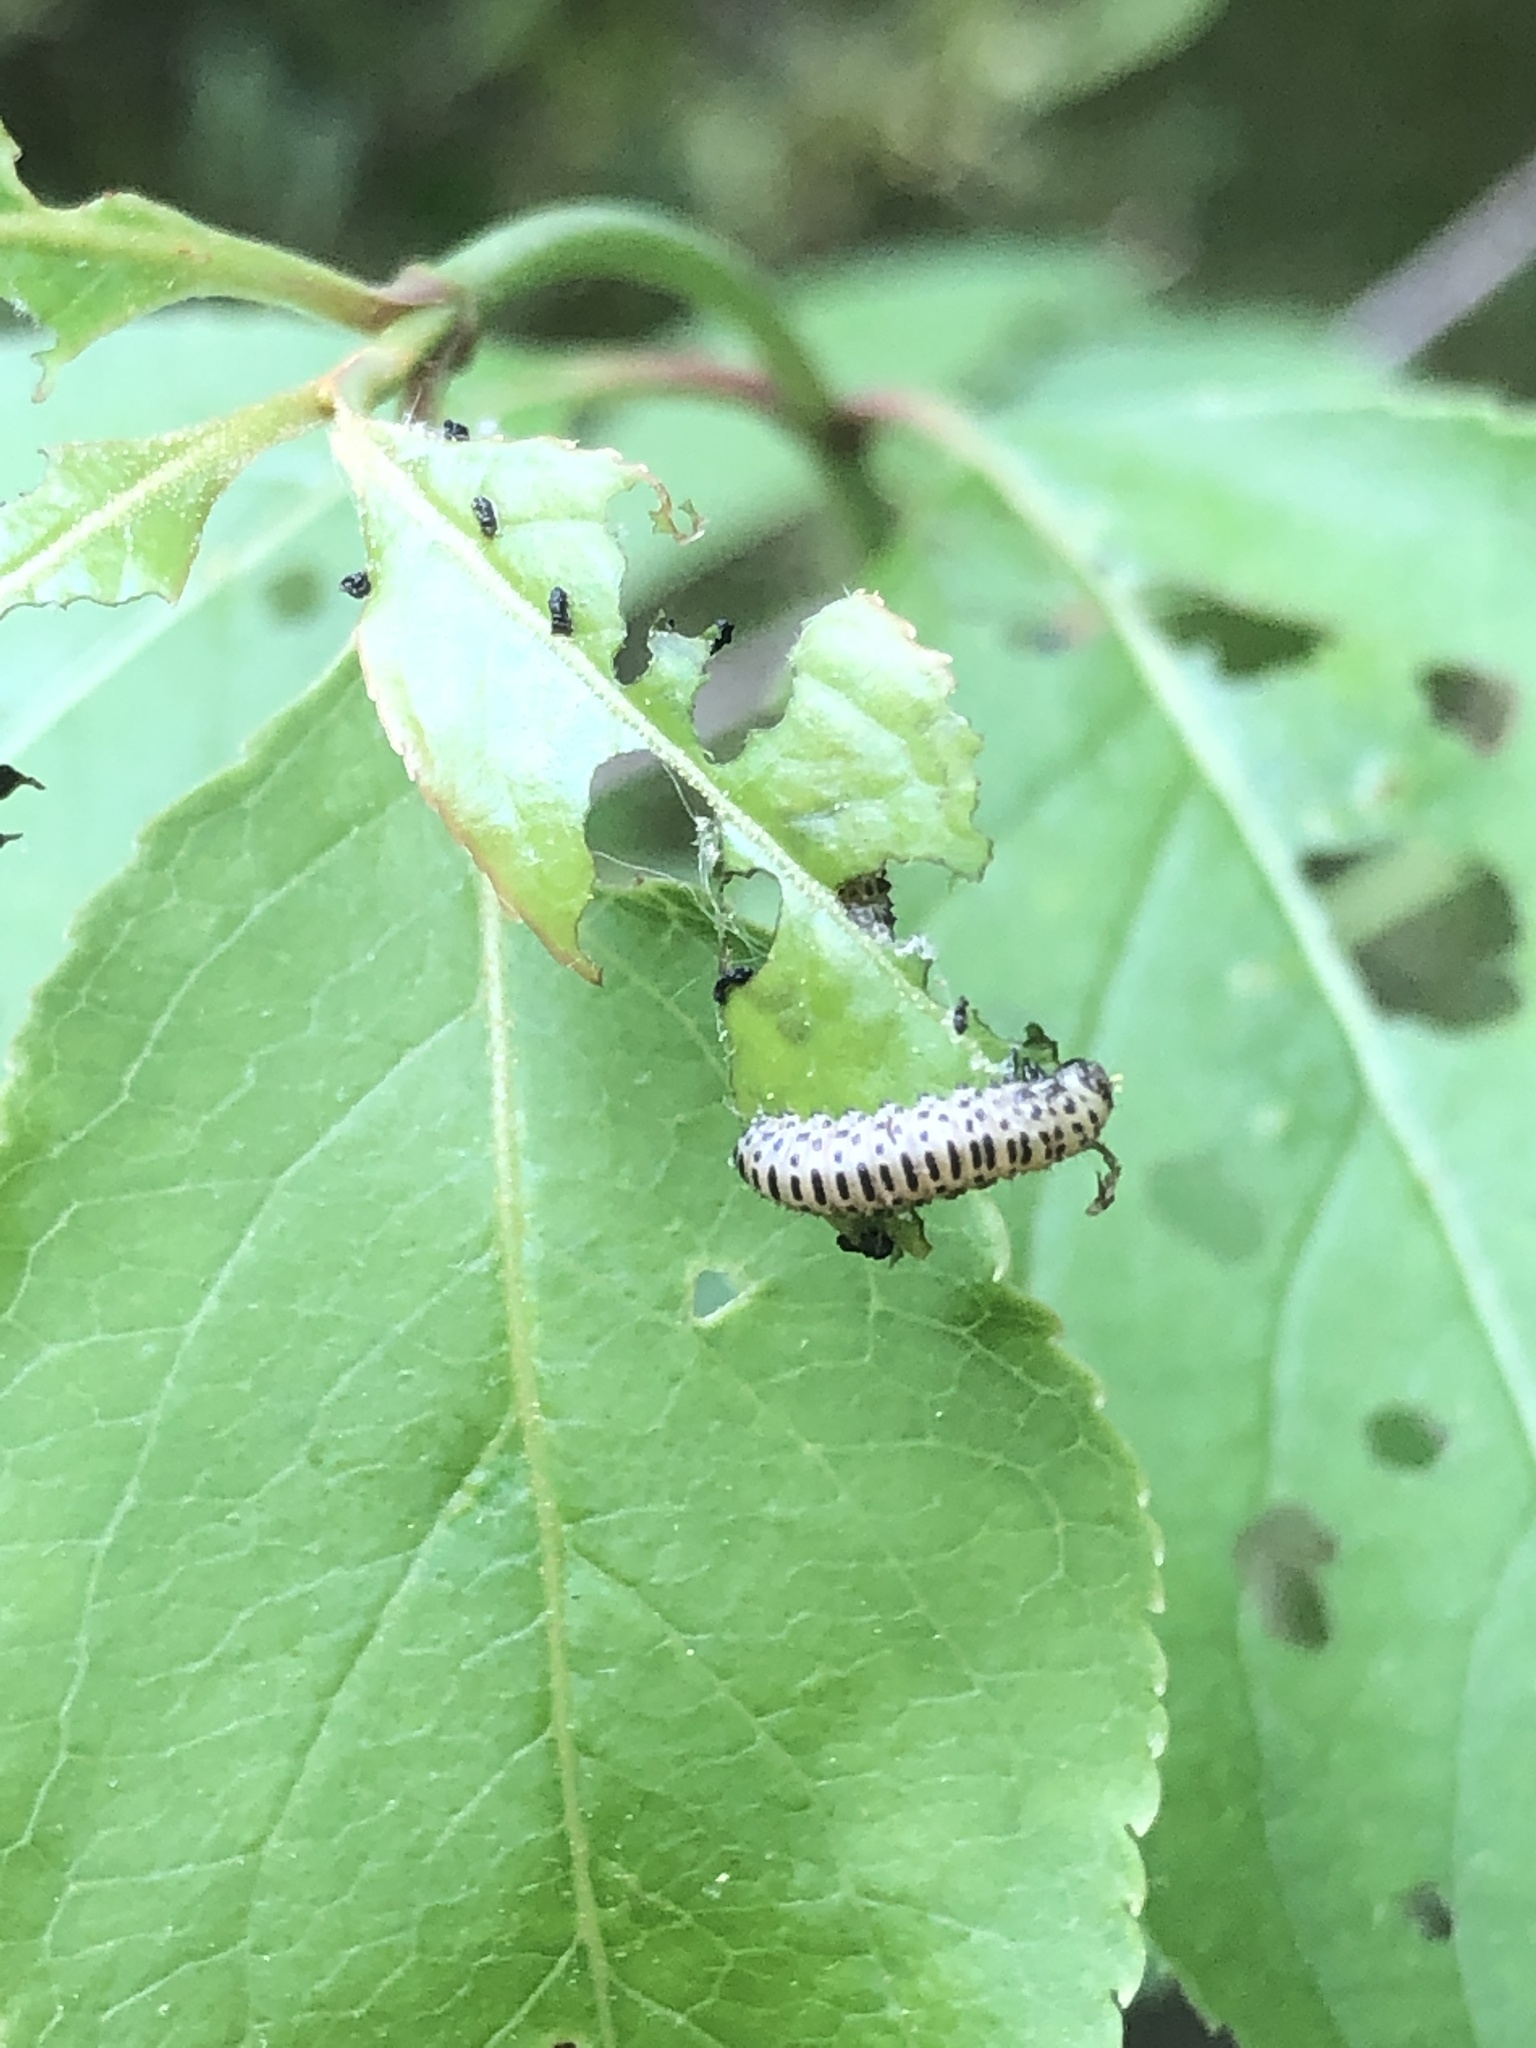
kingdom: Animalia
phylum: Arthropoda
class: Insecta
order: Coleoptera
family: Chrysomelidae
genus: Pyrrhalta
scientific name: Pyrrhalta viburni
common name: Guelder-rose leaf beetle
